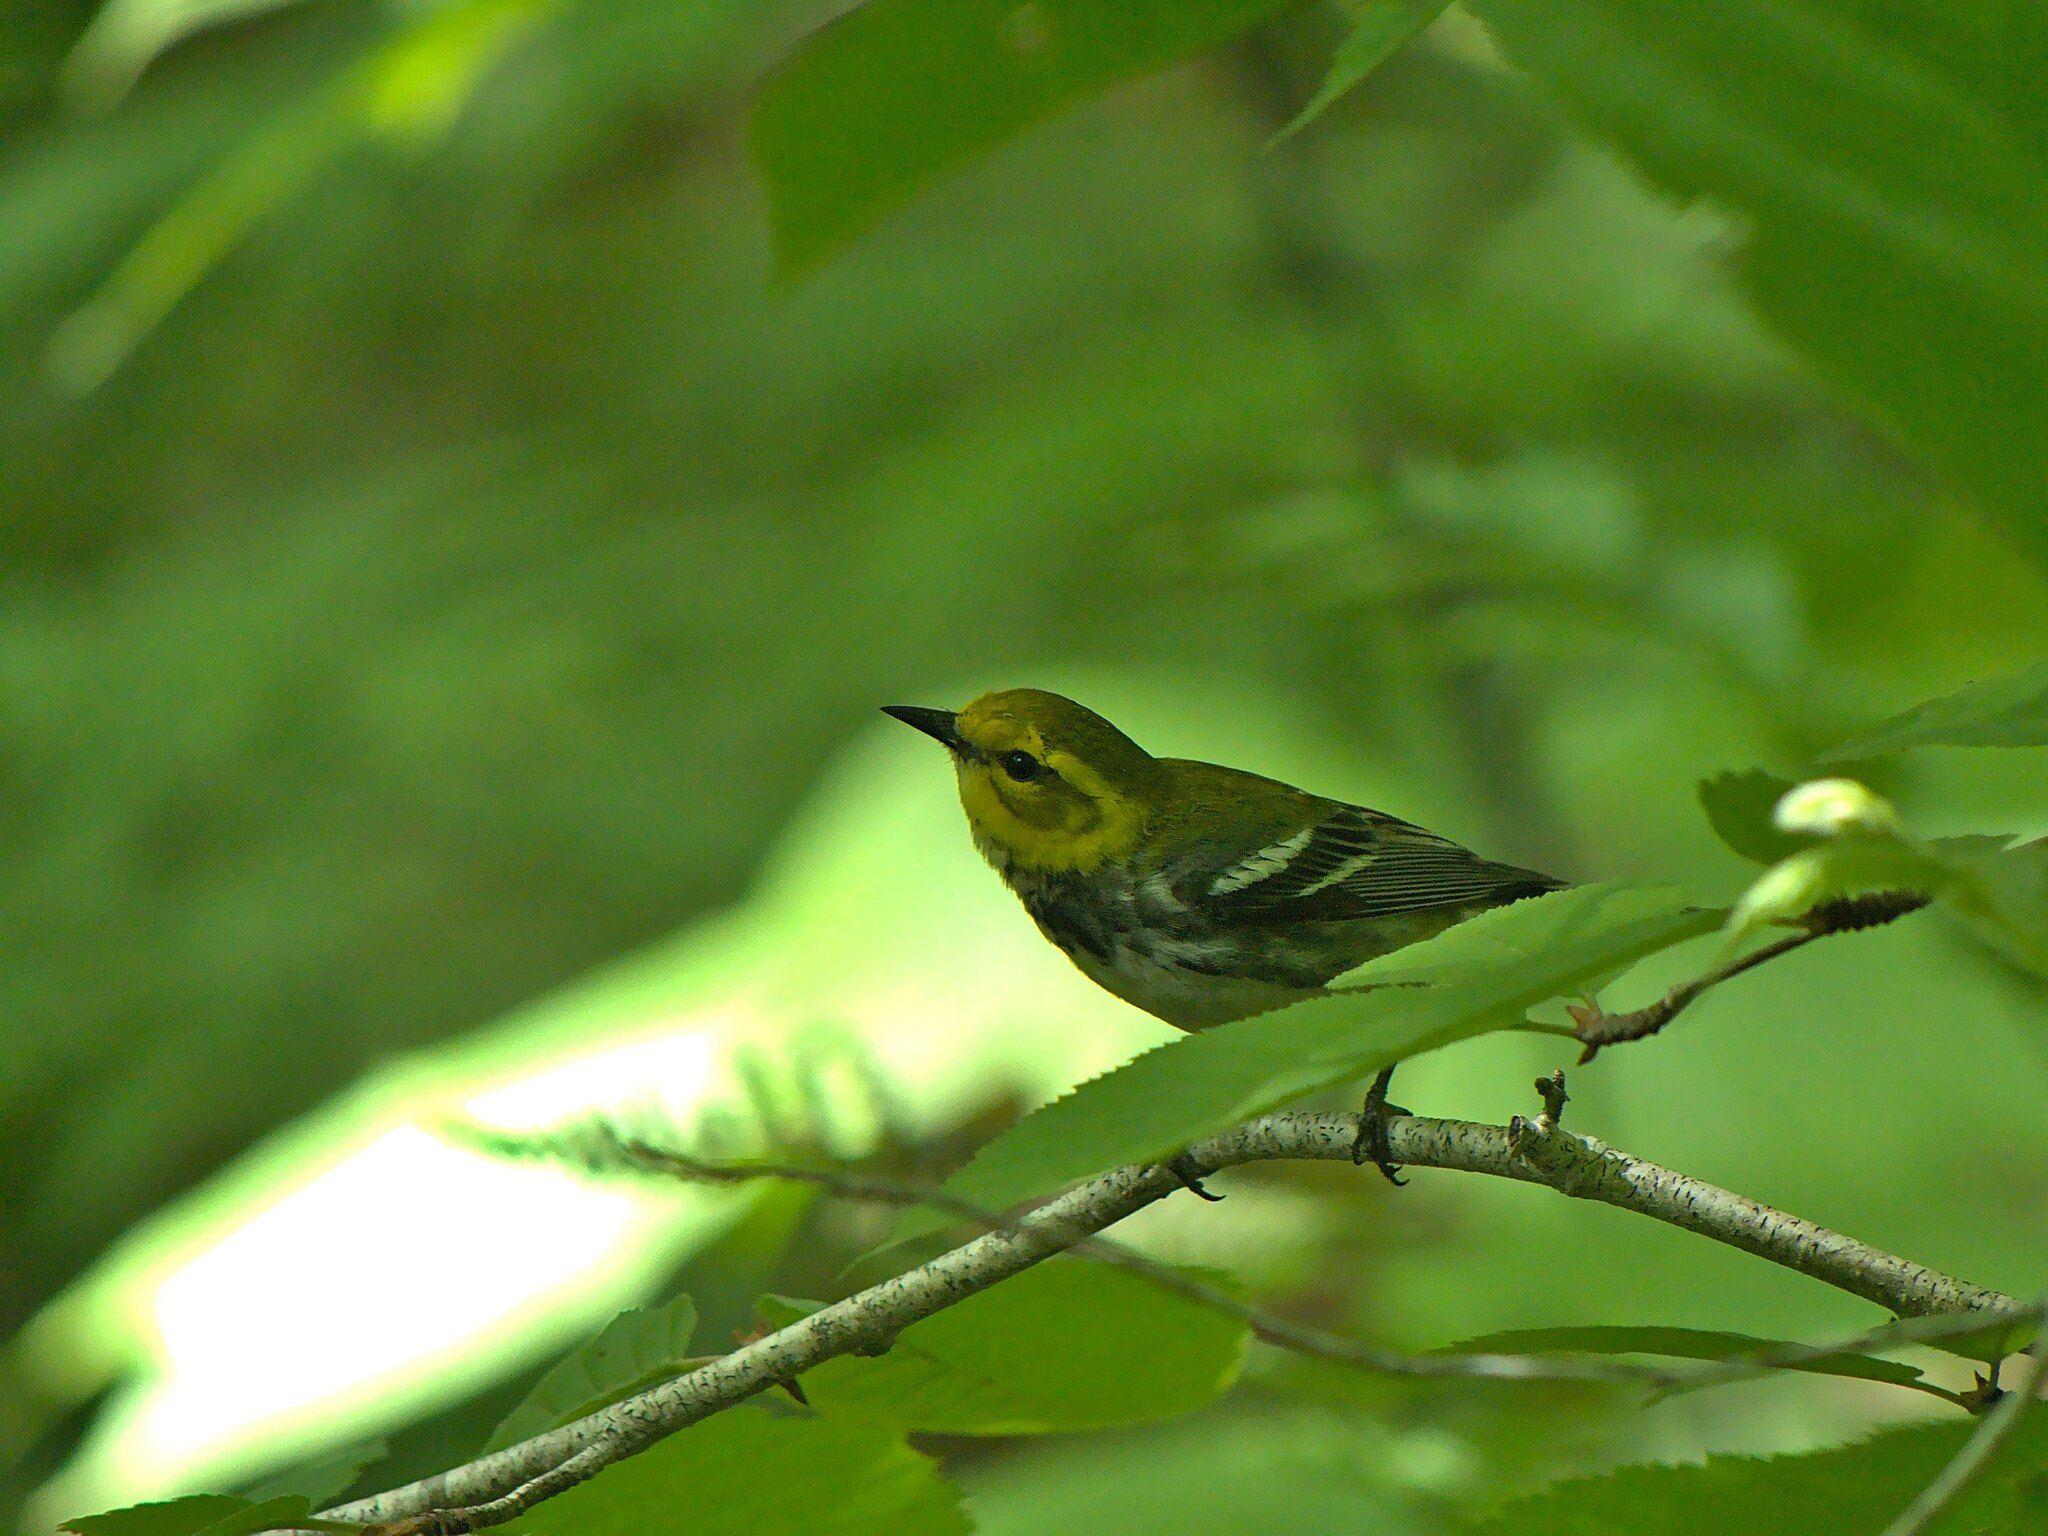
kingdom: Animalia
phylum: Chordata
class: Aves
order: Passeriformes
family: Parulidae
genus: Setophaga
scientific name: Setophaga virens
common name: Black-throated green warbler
